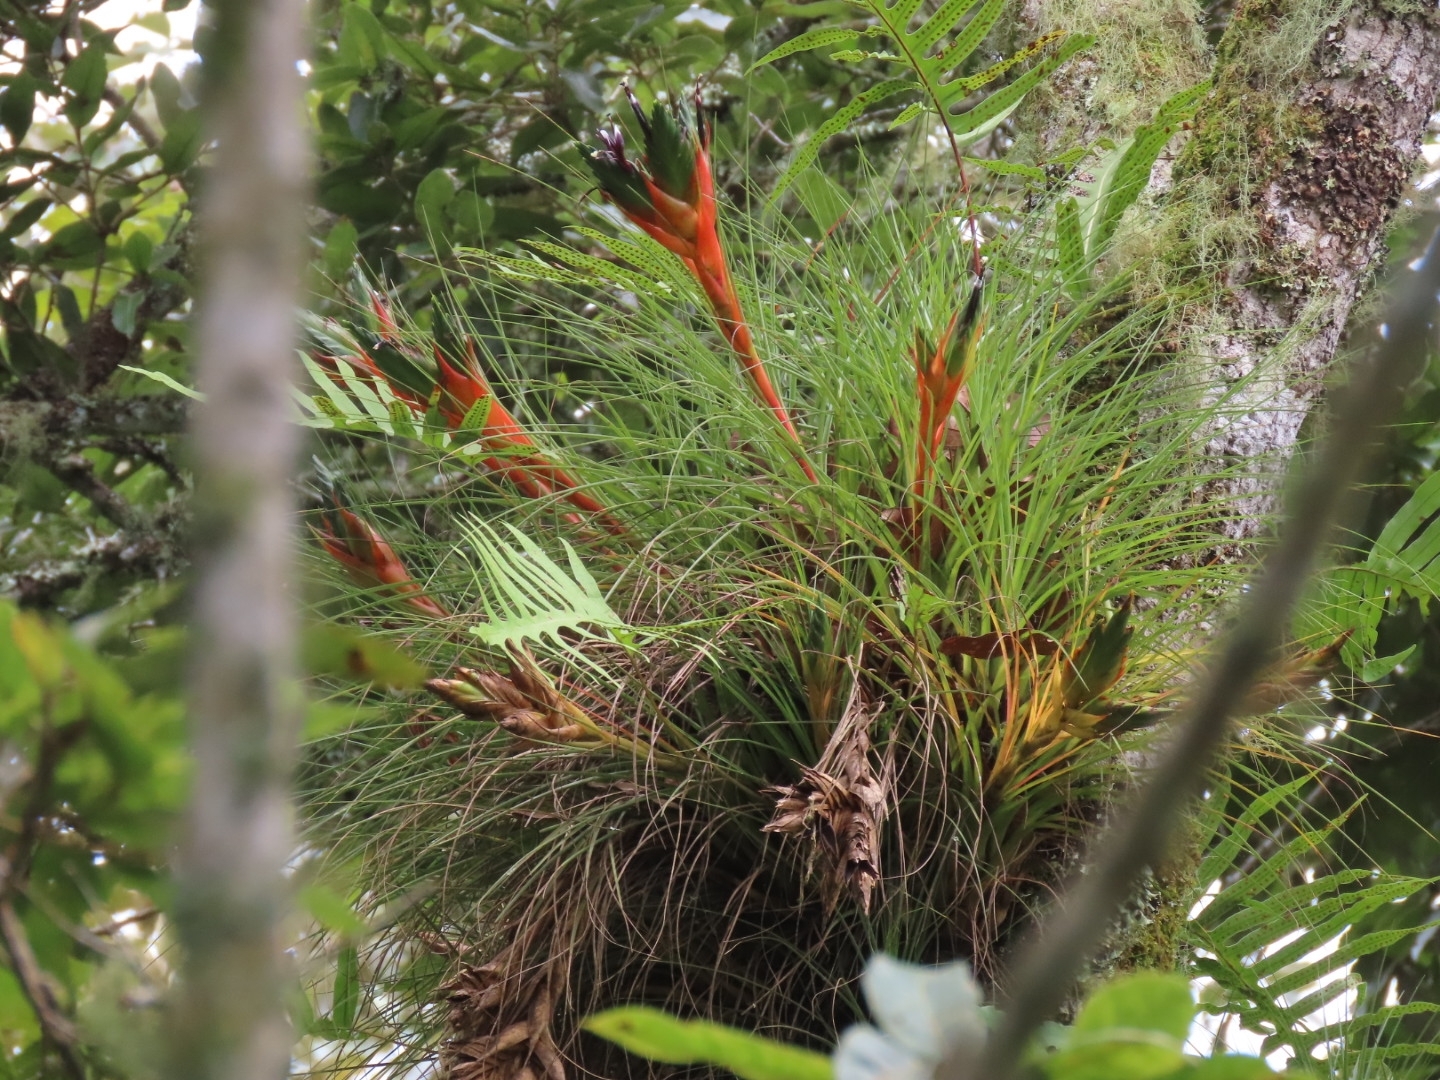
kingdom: Plantae
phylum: Tracheophyta
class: Liliopsida
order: Poales
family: Bromeliaceae
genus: Tillandsia
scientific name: Tillandsia punctulata
